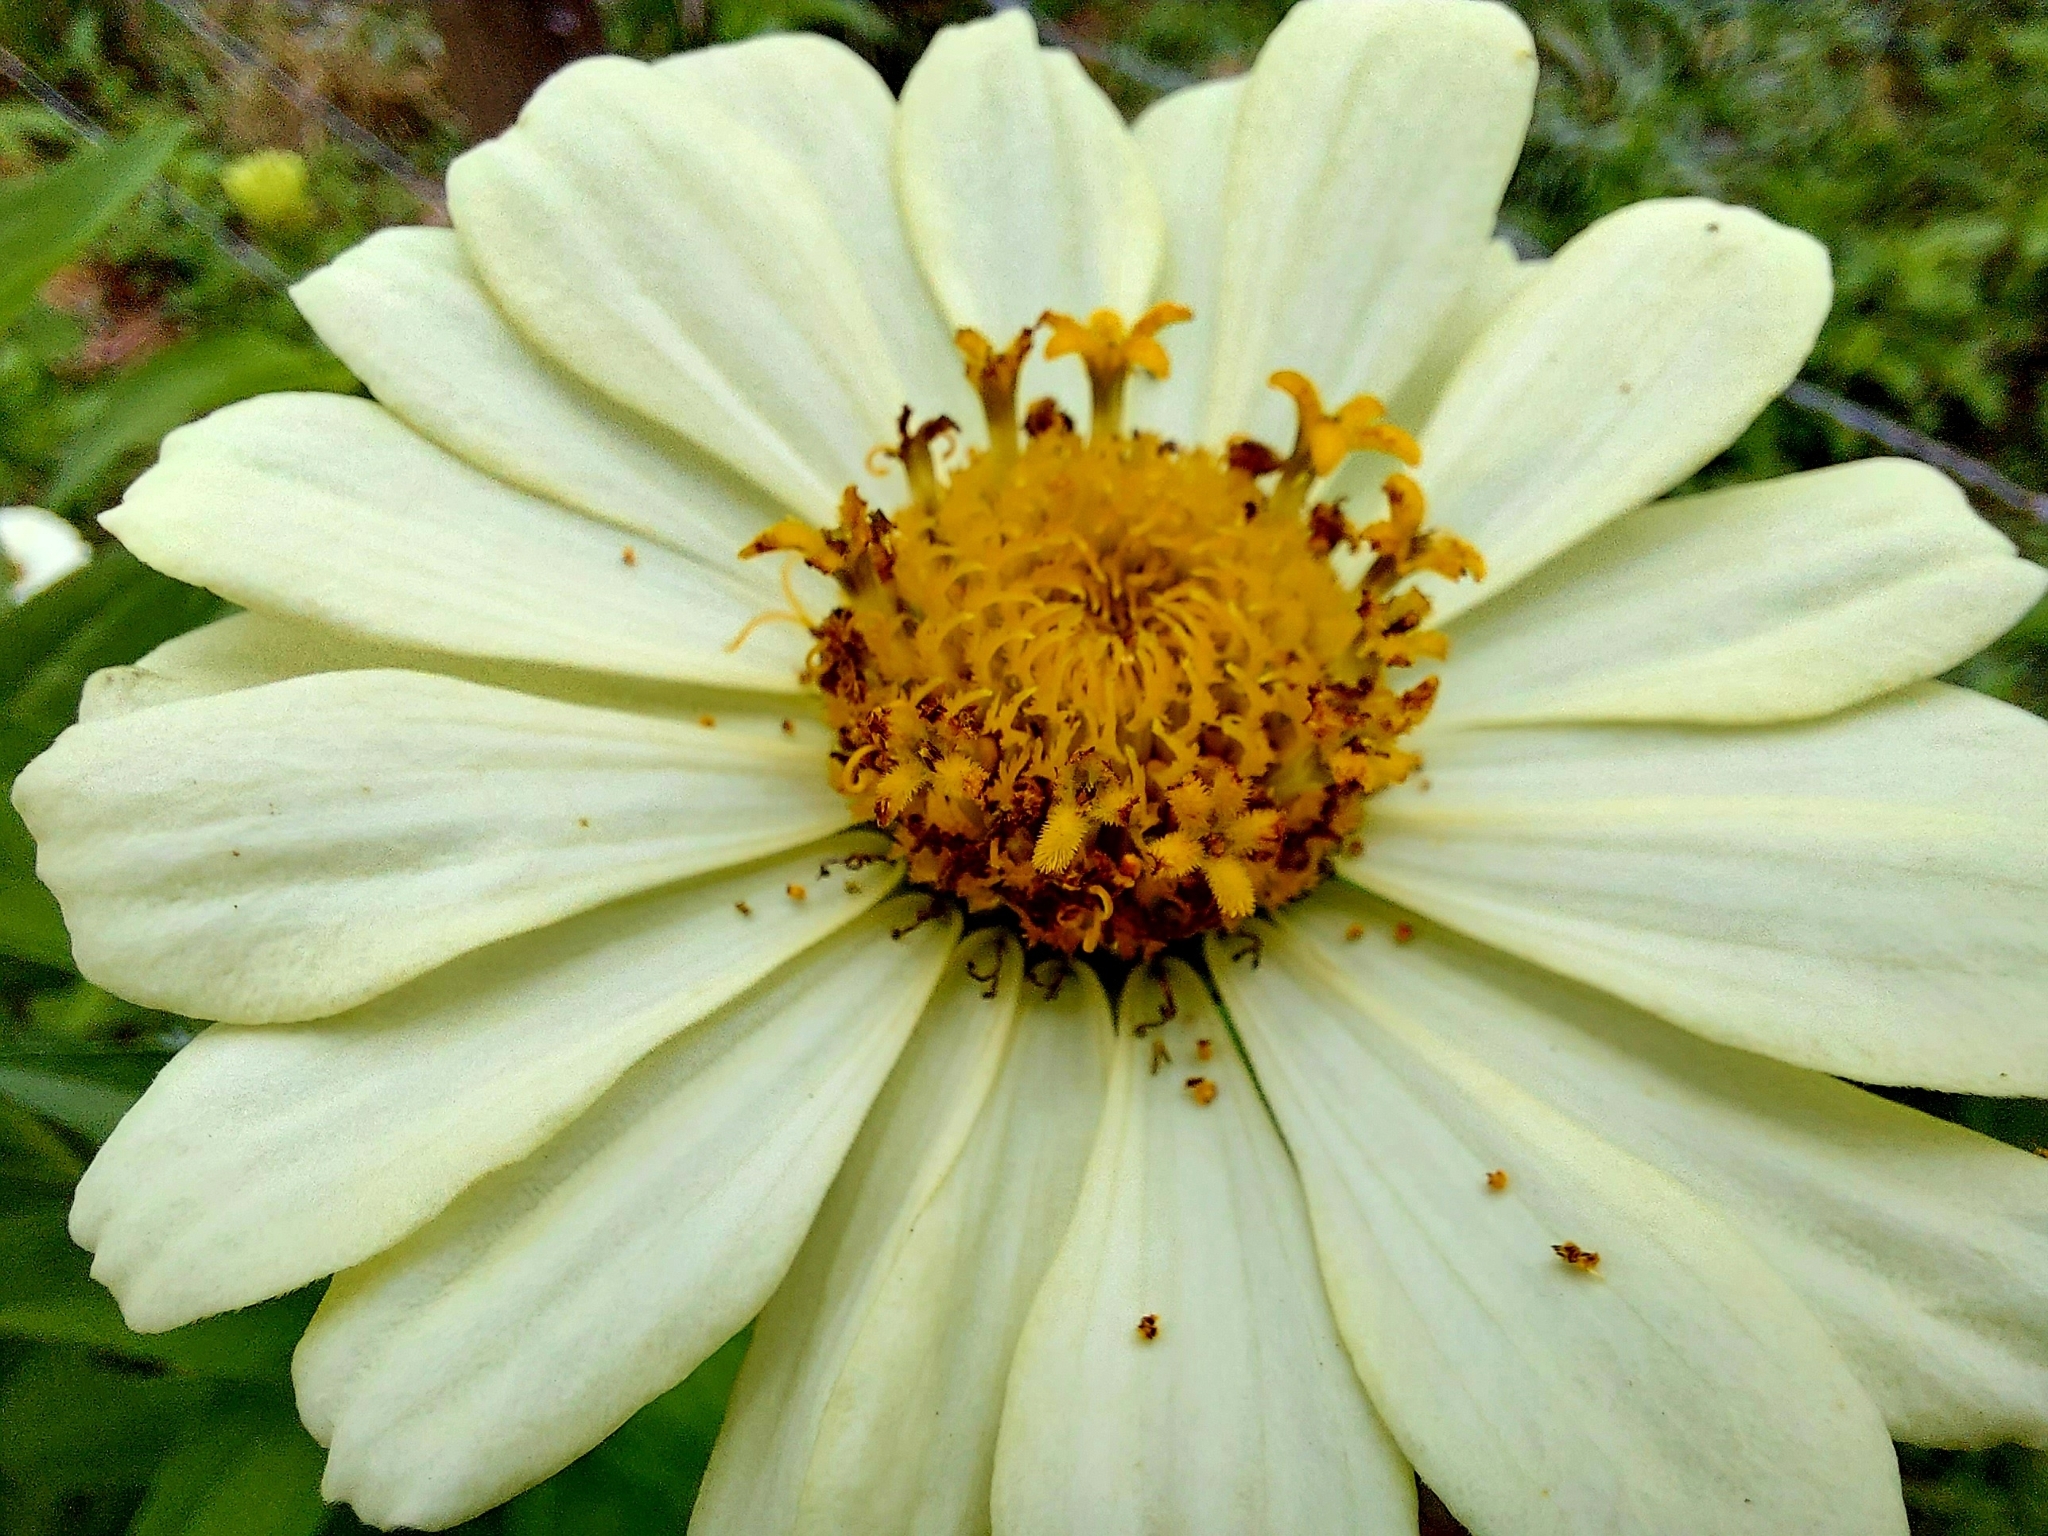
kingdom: Plantae
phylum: Tracheophyta
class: Magnoliopsida
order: Asterales
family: Asteraceae
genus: Zinnia
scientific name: Zinnia elegans
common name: Youth-and-age
